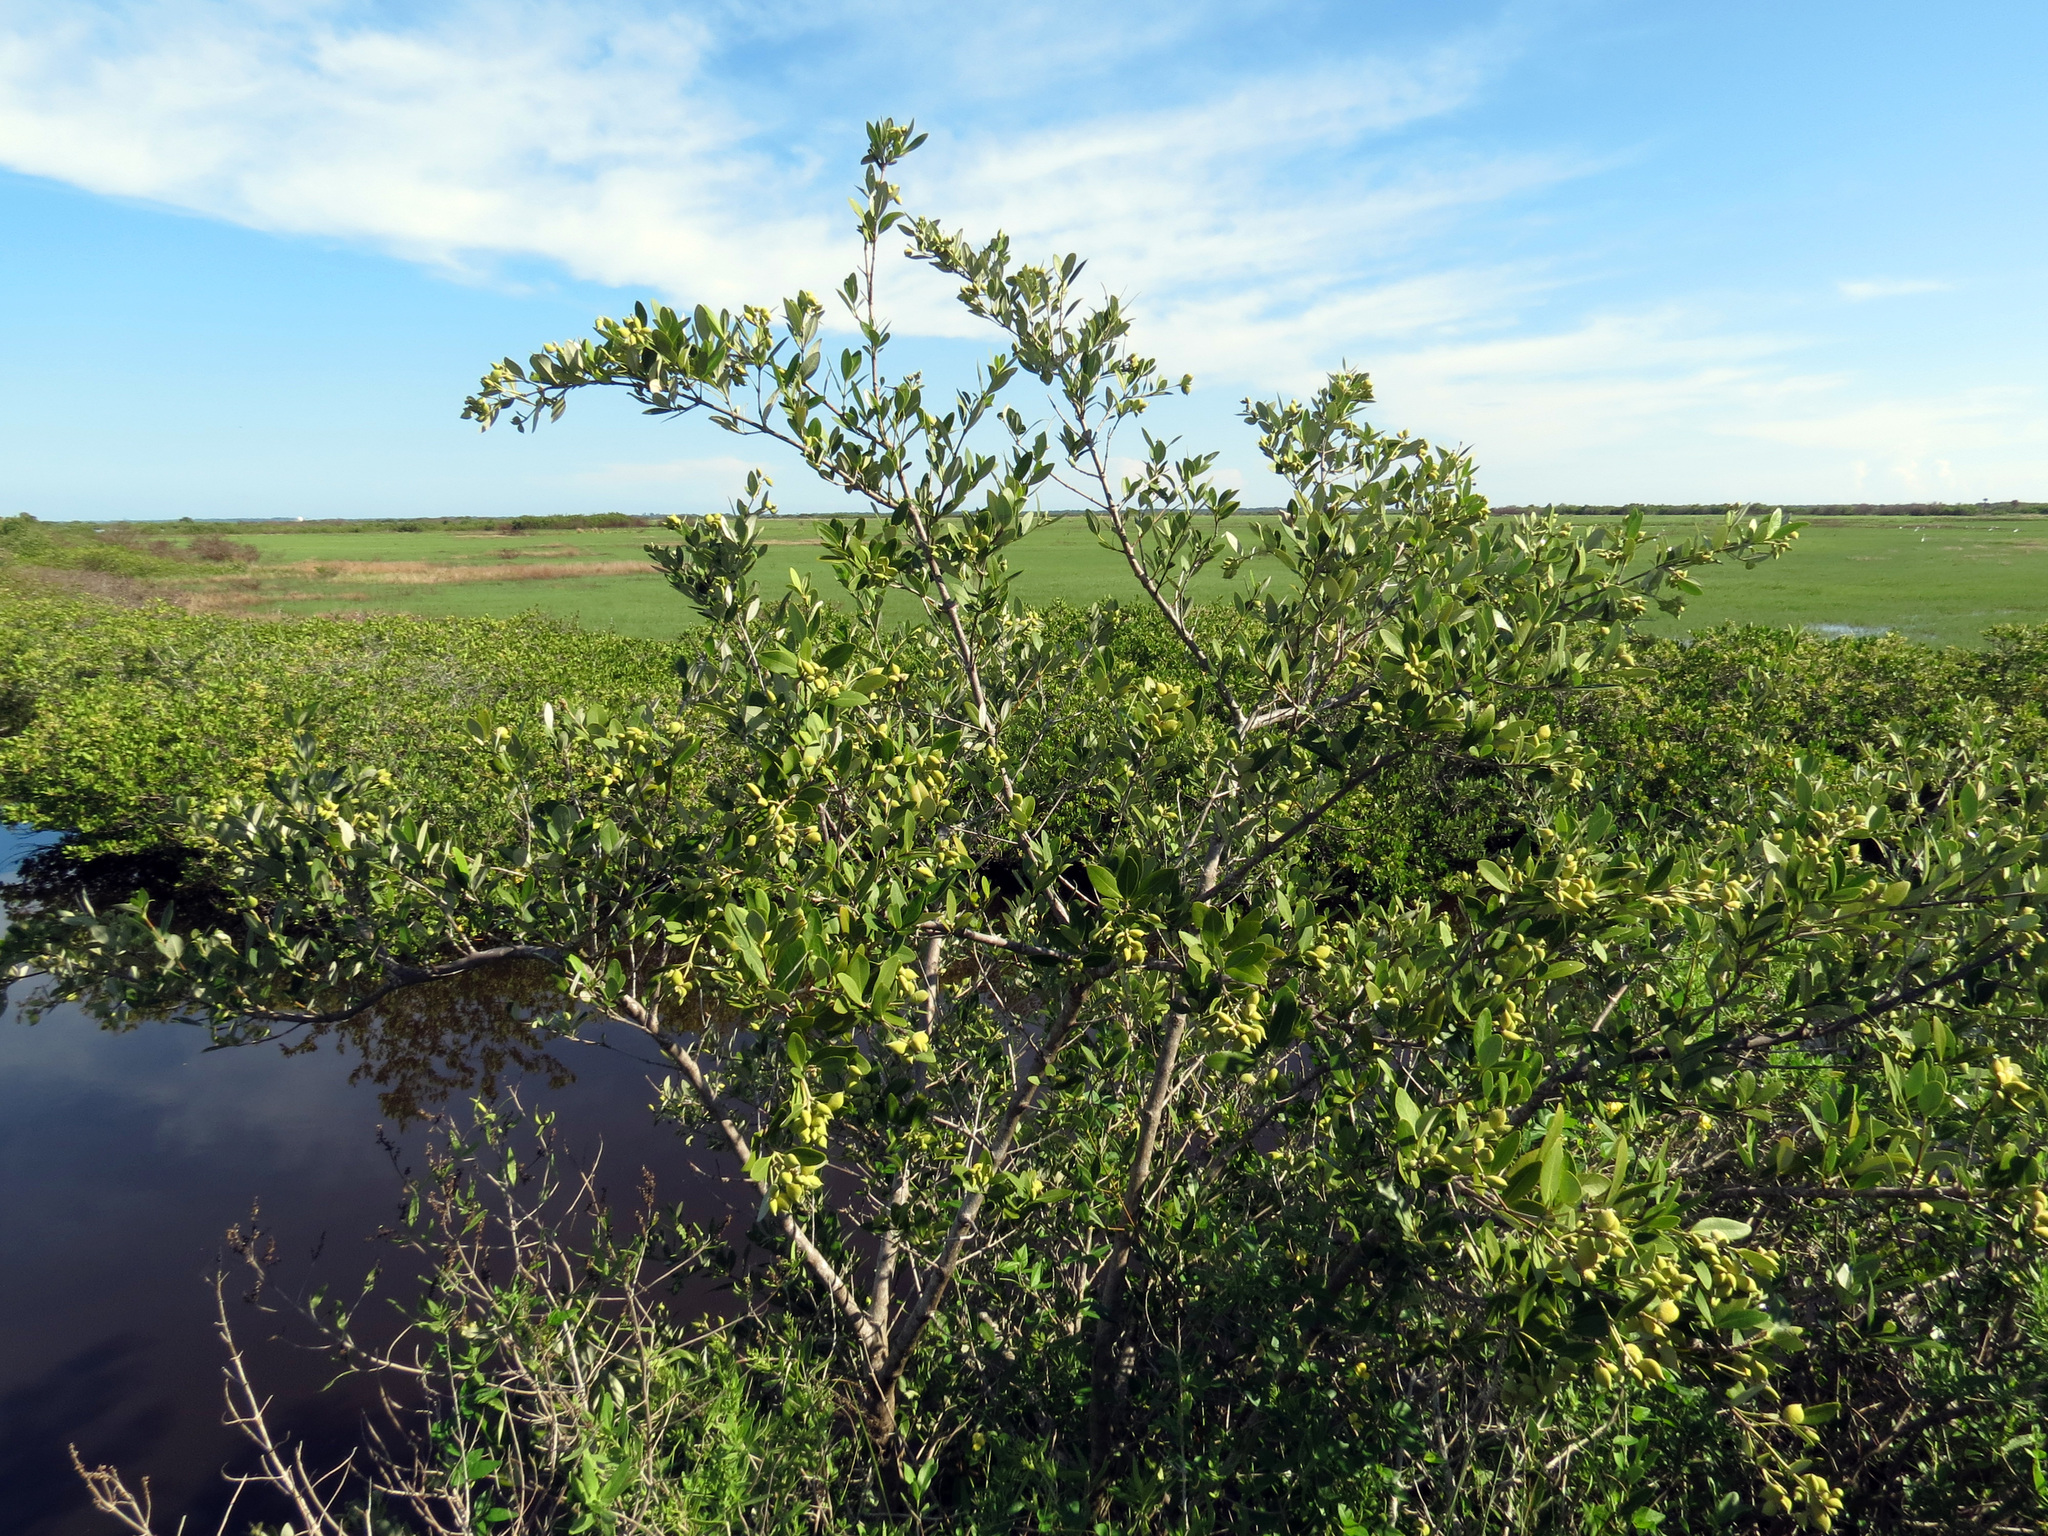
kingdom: Plantae
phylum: Tracheophyta
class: Magnoliopsida
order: Lamiales
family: Acanthaceae
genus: Avicennia
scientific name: Avicennia germinans
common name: Black mangrove
